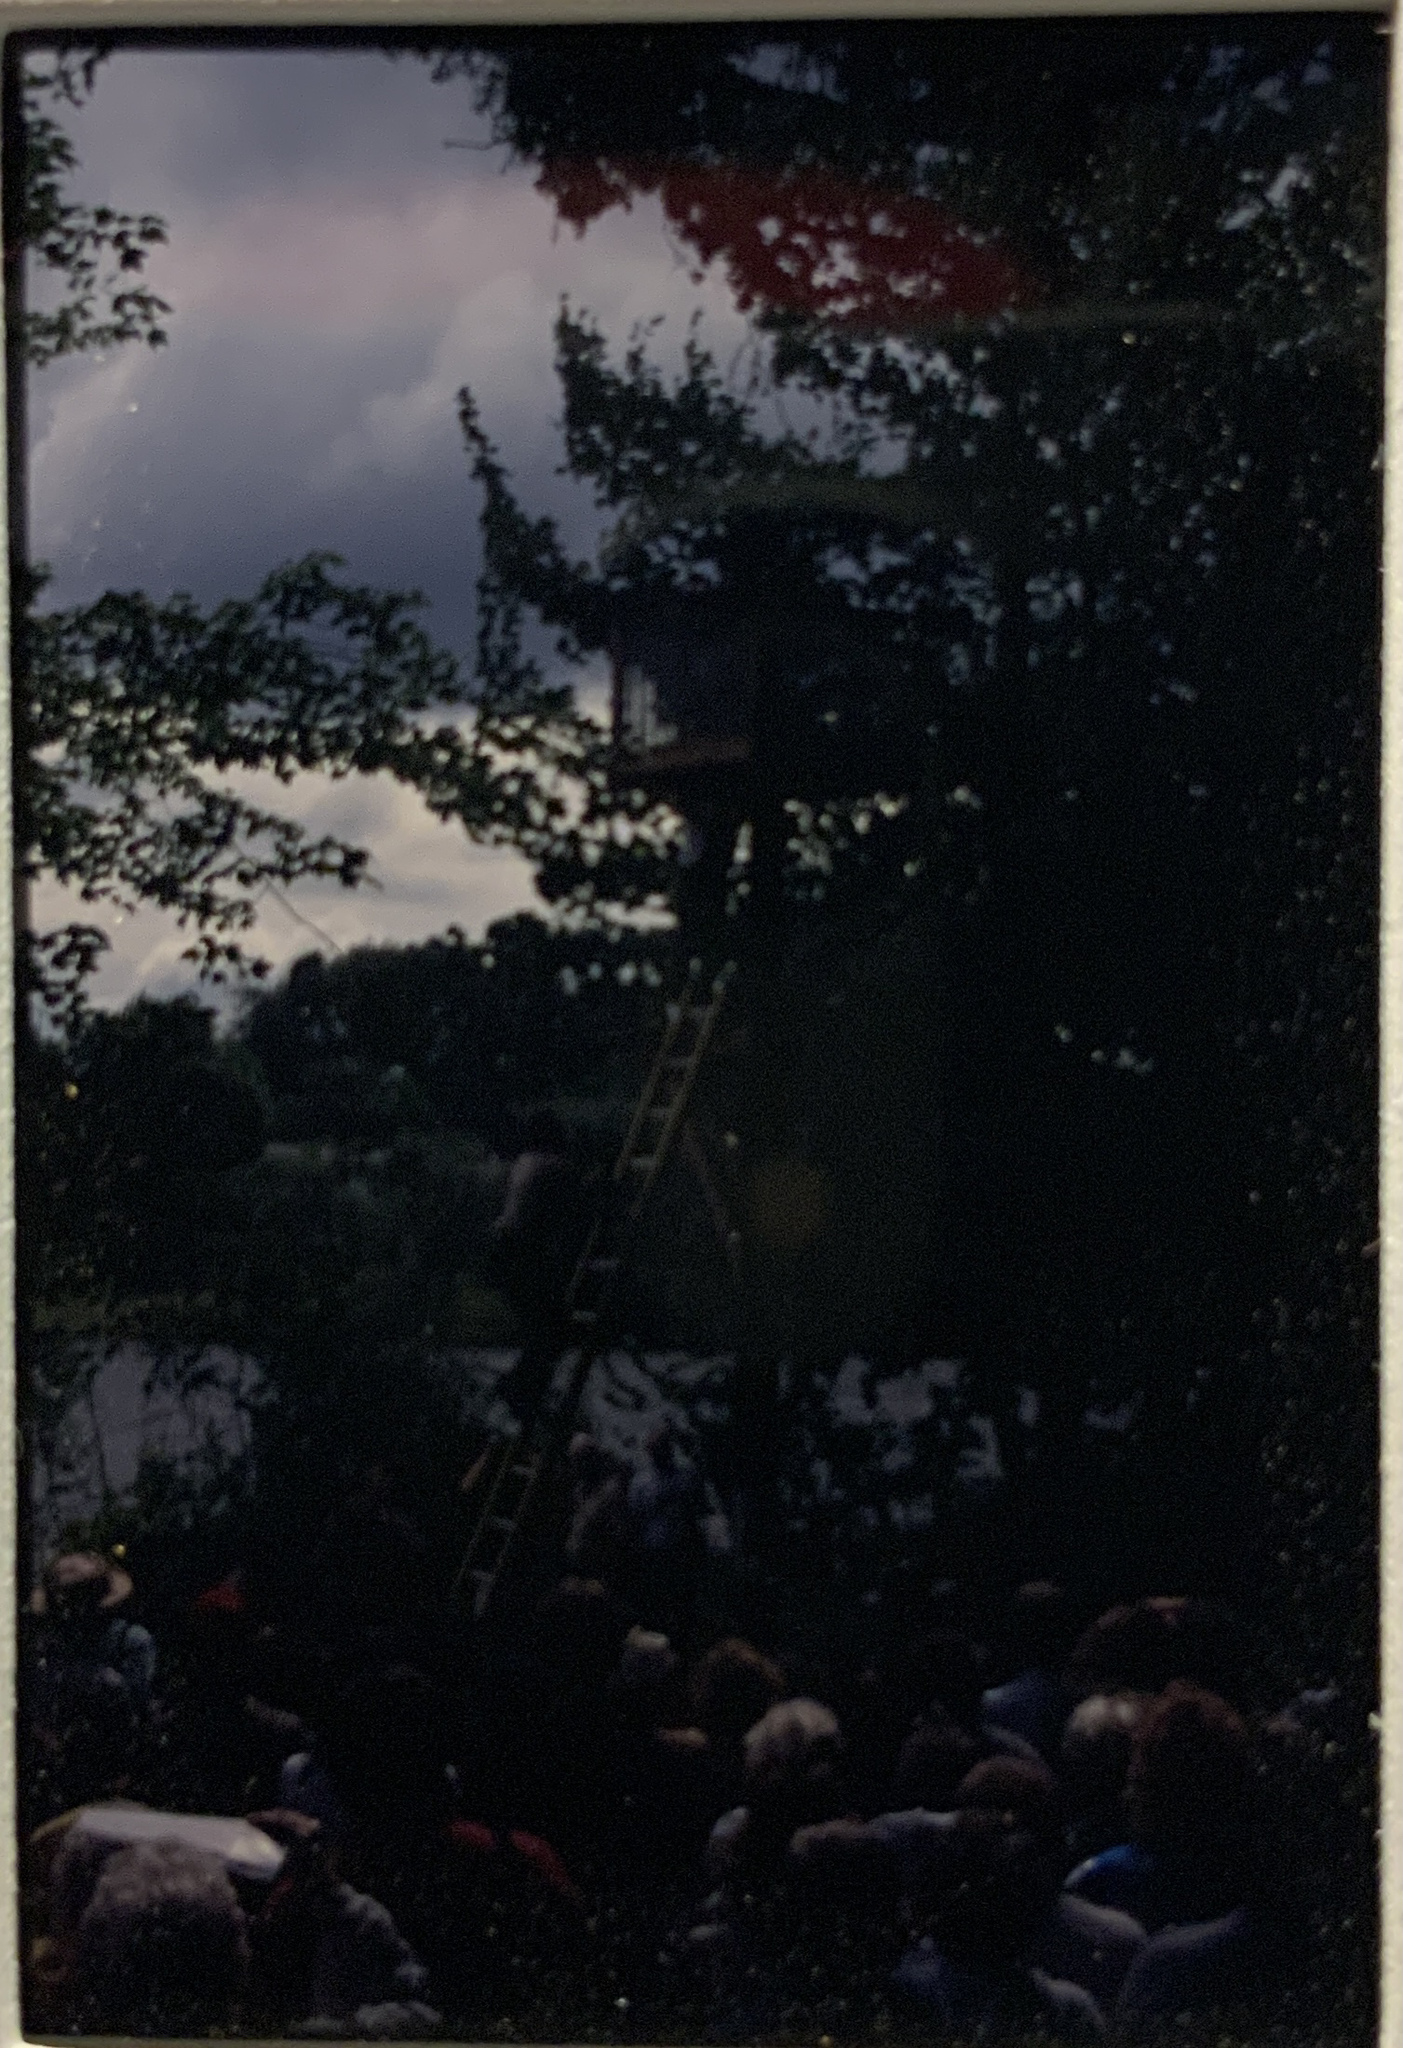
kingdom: Animalia
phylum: Chordata
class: Aves
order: Accipitriformes
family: Pandionidae
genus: Pandion
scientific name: Pandion haliaetus
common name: Osprey
